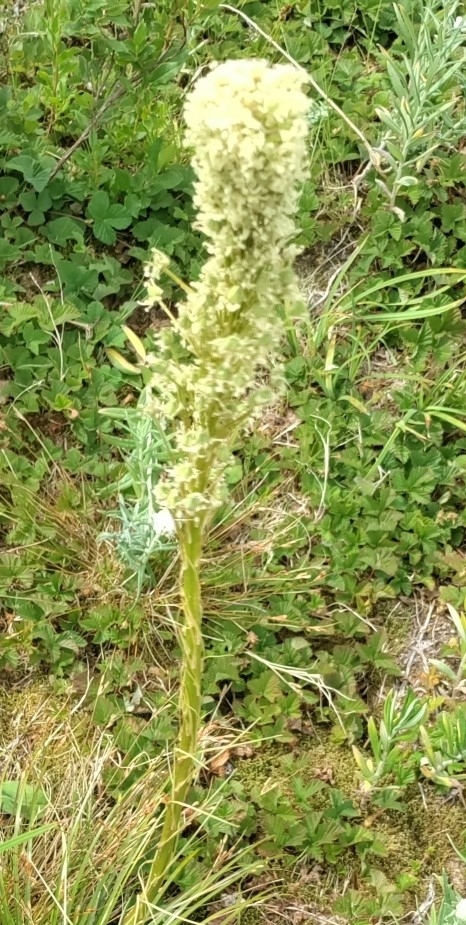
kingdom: Plantae
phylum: Tracheophyta
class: Liliopsida
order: Liliales
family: Melanthiaceae
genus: Xerophyllum
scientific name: Xerophyllum tenax
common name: Bear-grass
